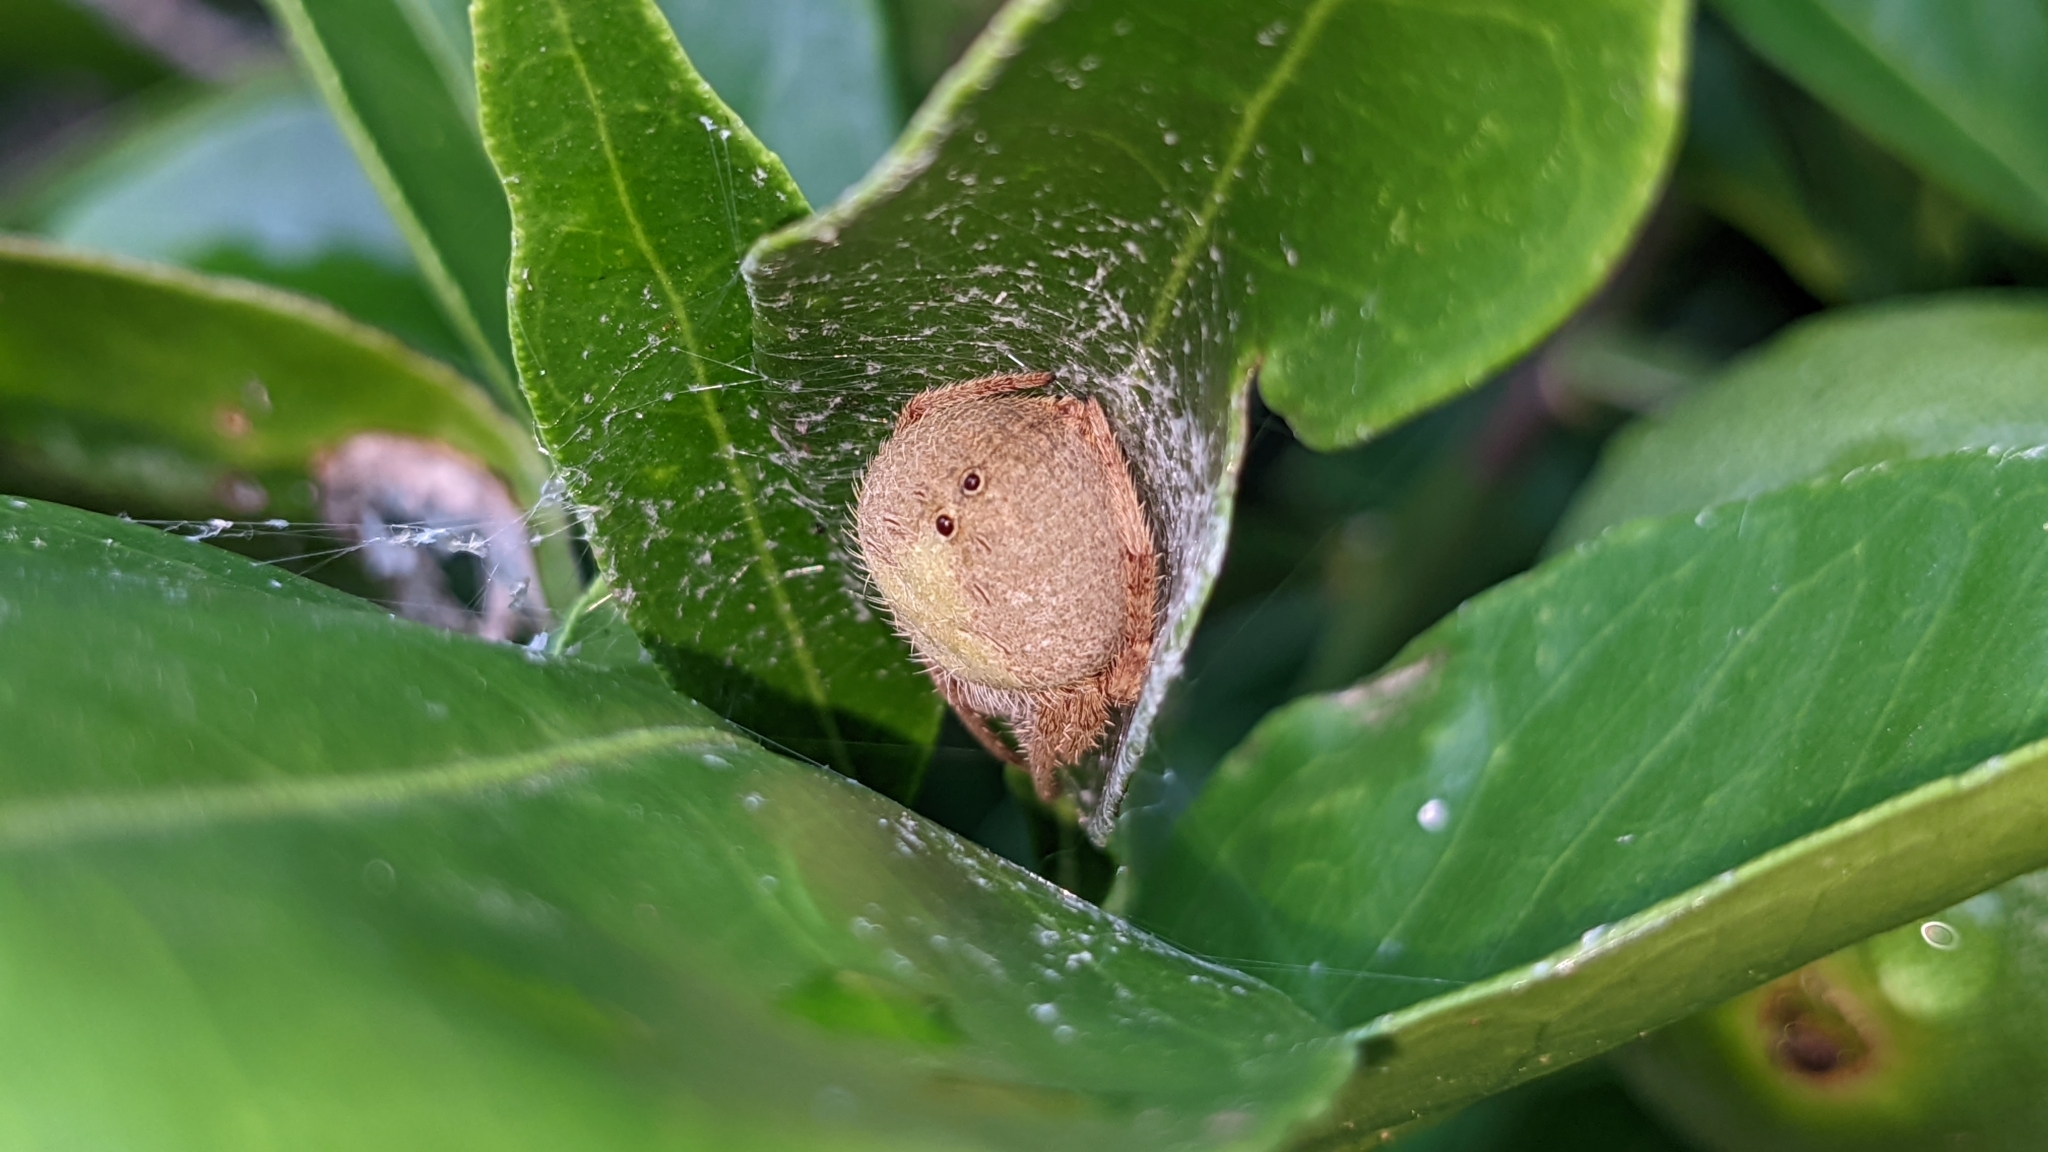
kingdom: Animalia
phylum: Arthropoda
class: Arachnida
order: Araneae
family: Araneidae
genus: Eriophora
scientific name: Eriophora ravilla
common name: Orb weavers
